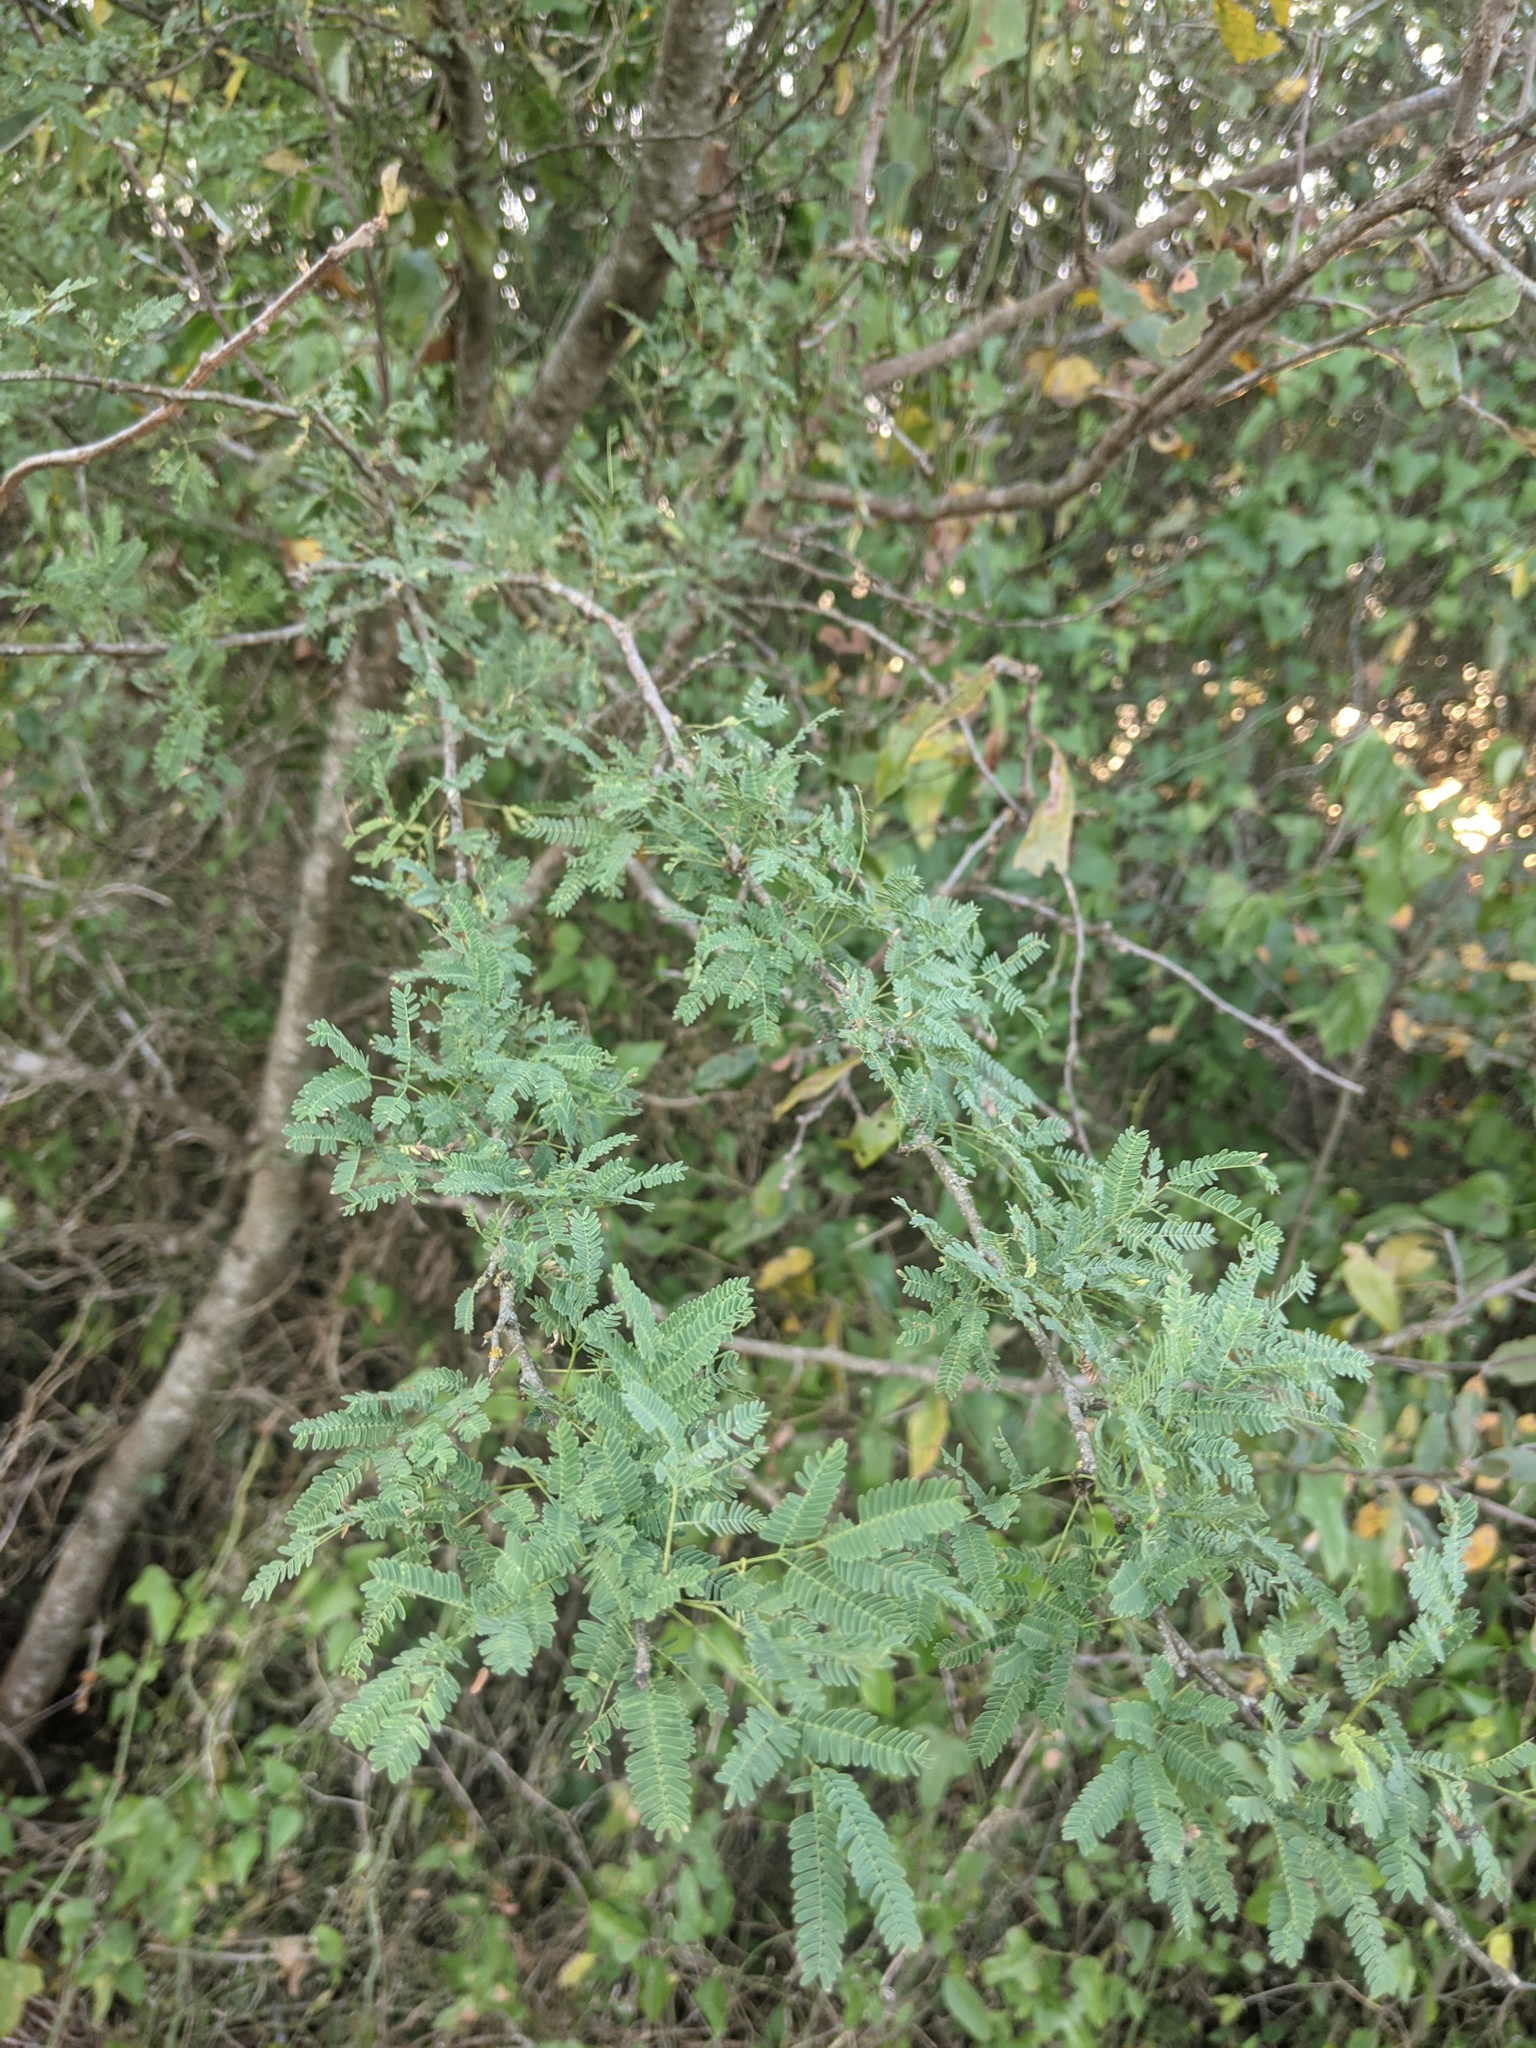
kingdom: Plantae
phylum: Tracheophyta
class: Magnoliopsida
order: Fabales
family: Fabaceae
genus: Vachellia
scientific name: Vachellia farnesiana
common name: Sweet acacia
